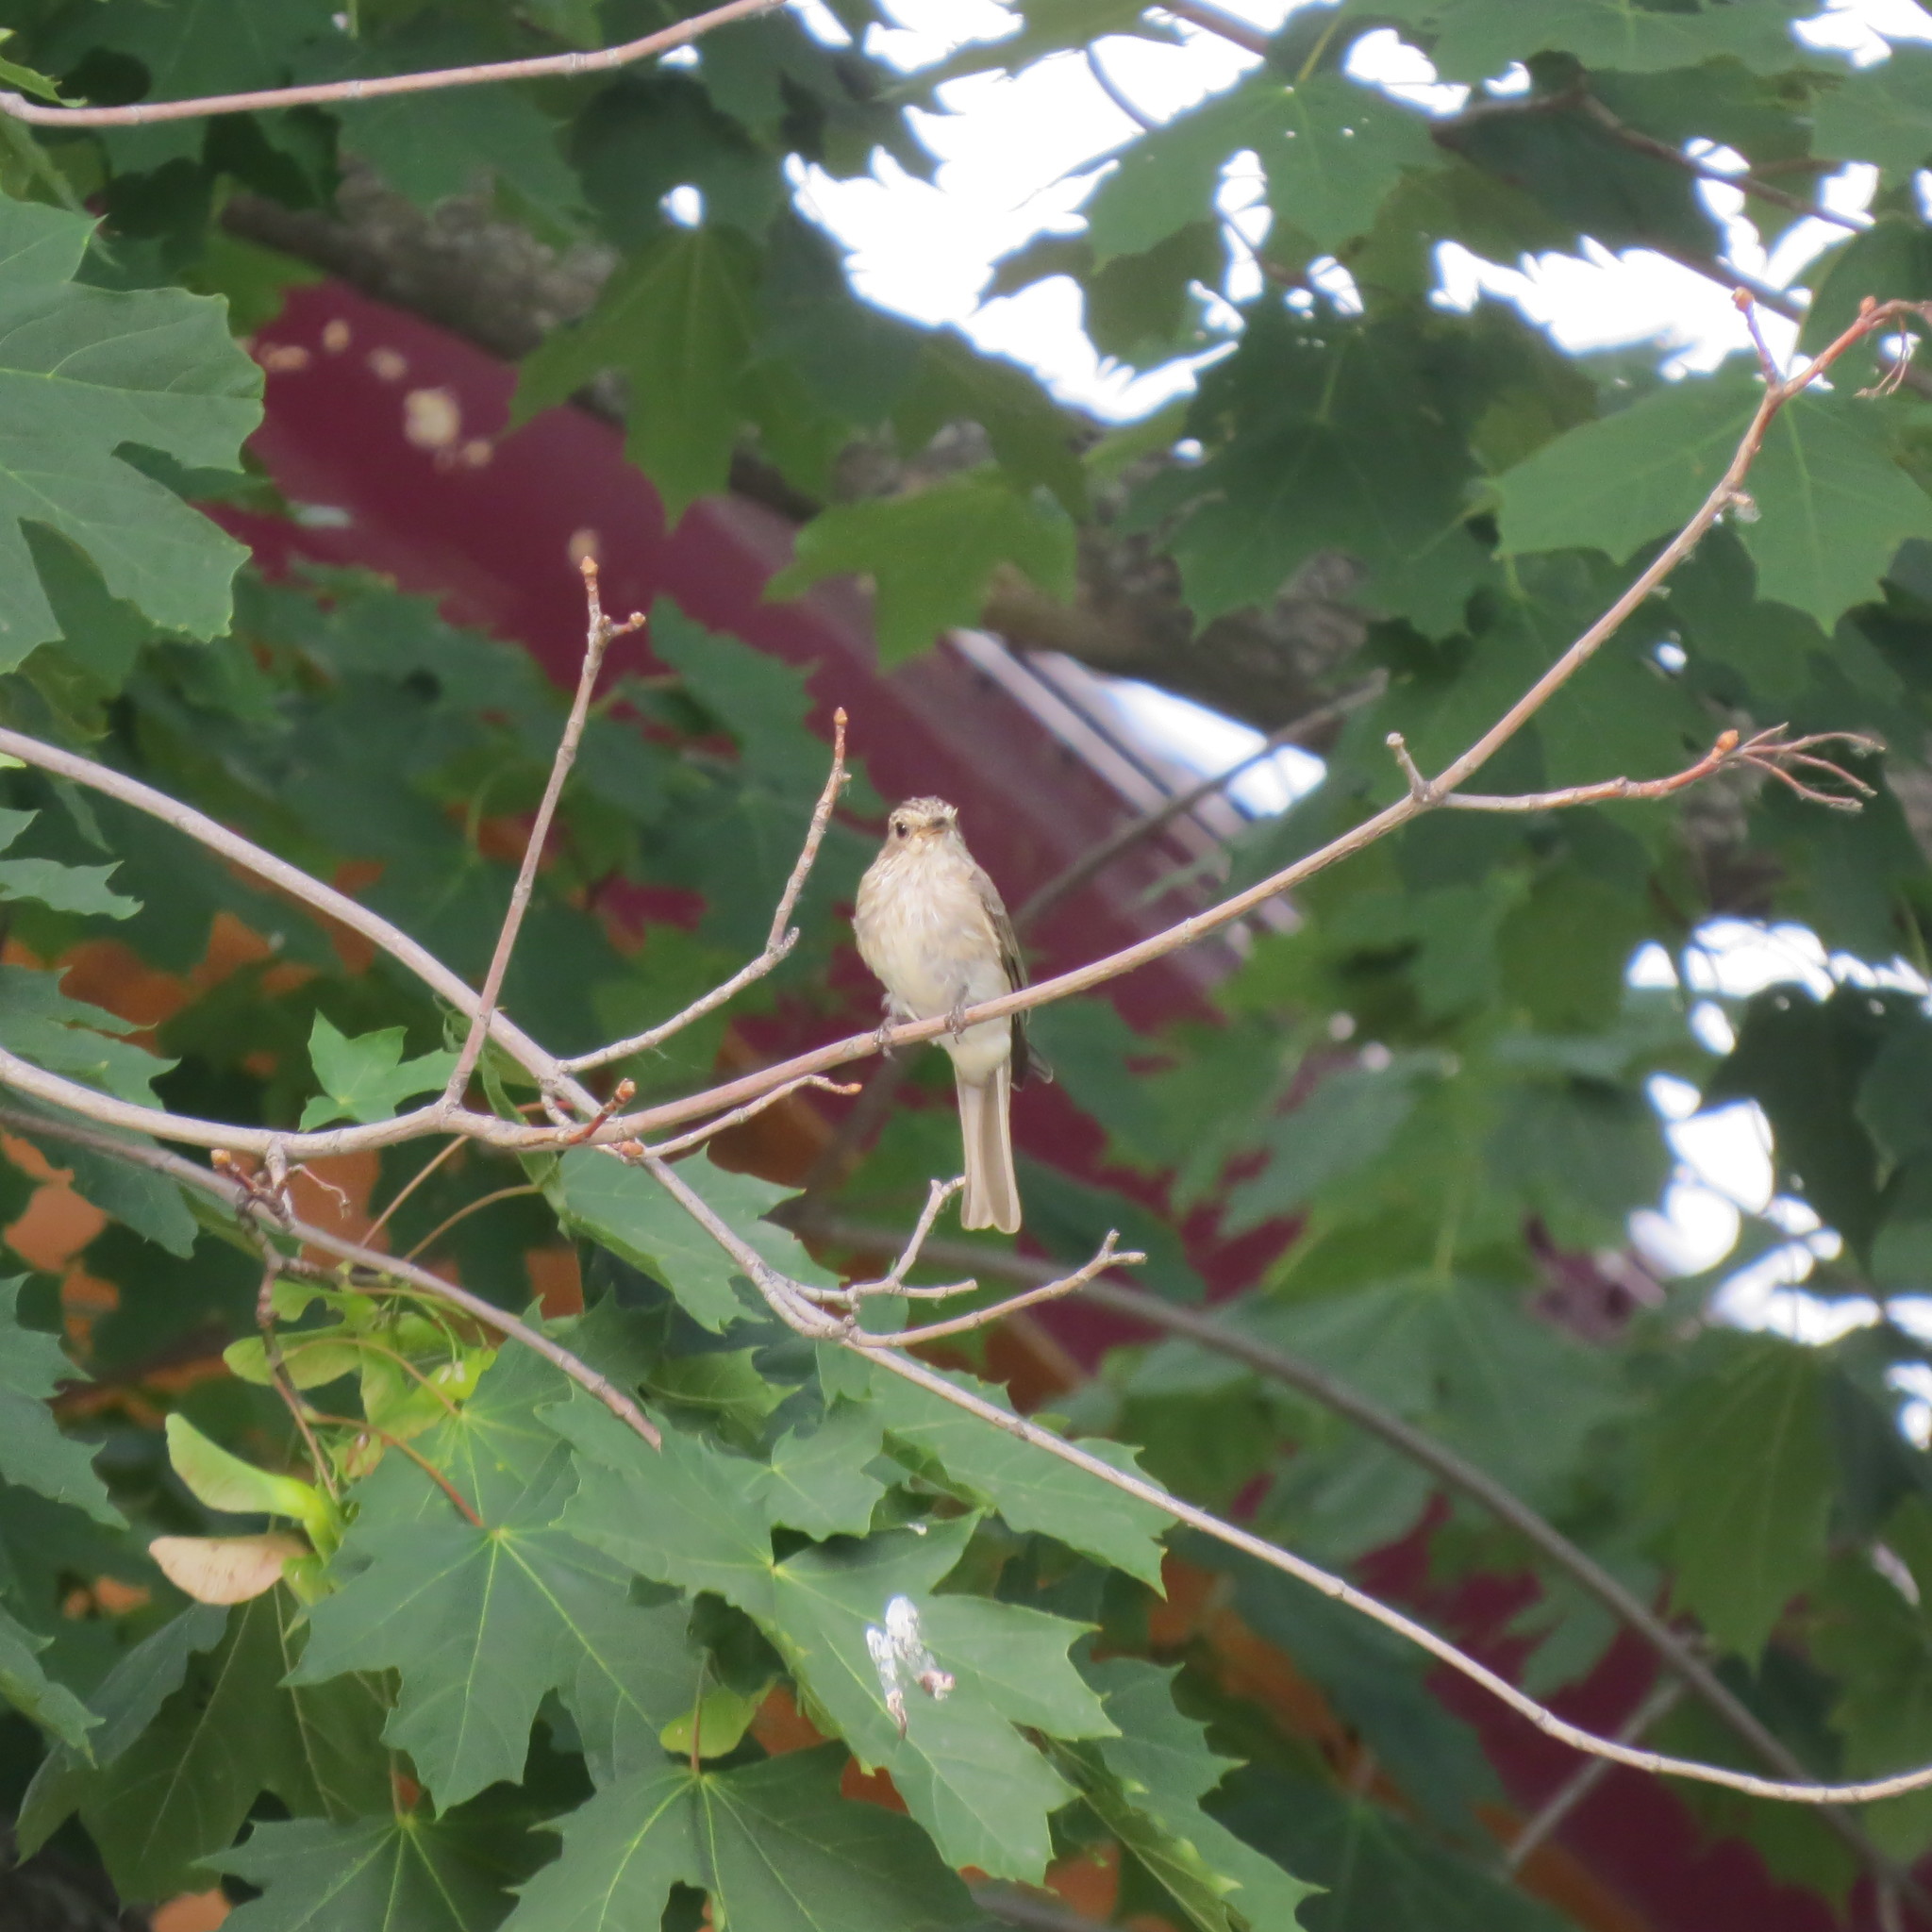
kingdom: Animalia
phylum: Chordata
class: Aves
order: Passeriformes
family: Muscicapidae
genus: Muscicapa
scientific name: Muscicapa striata
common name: Spotted flycatcher
